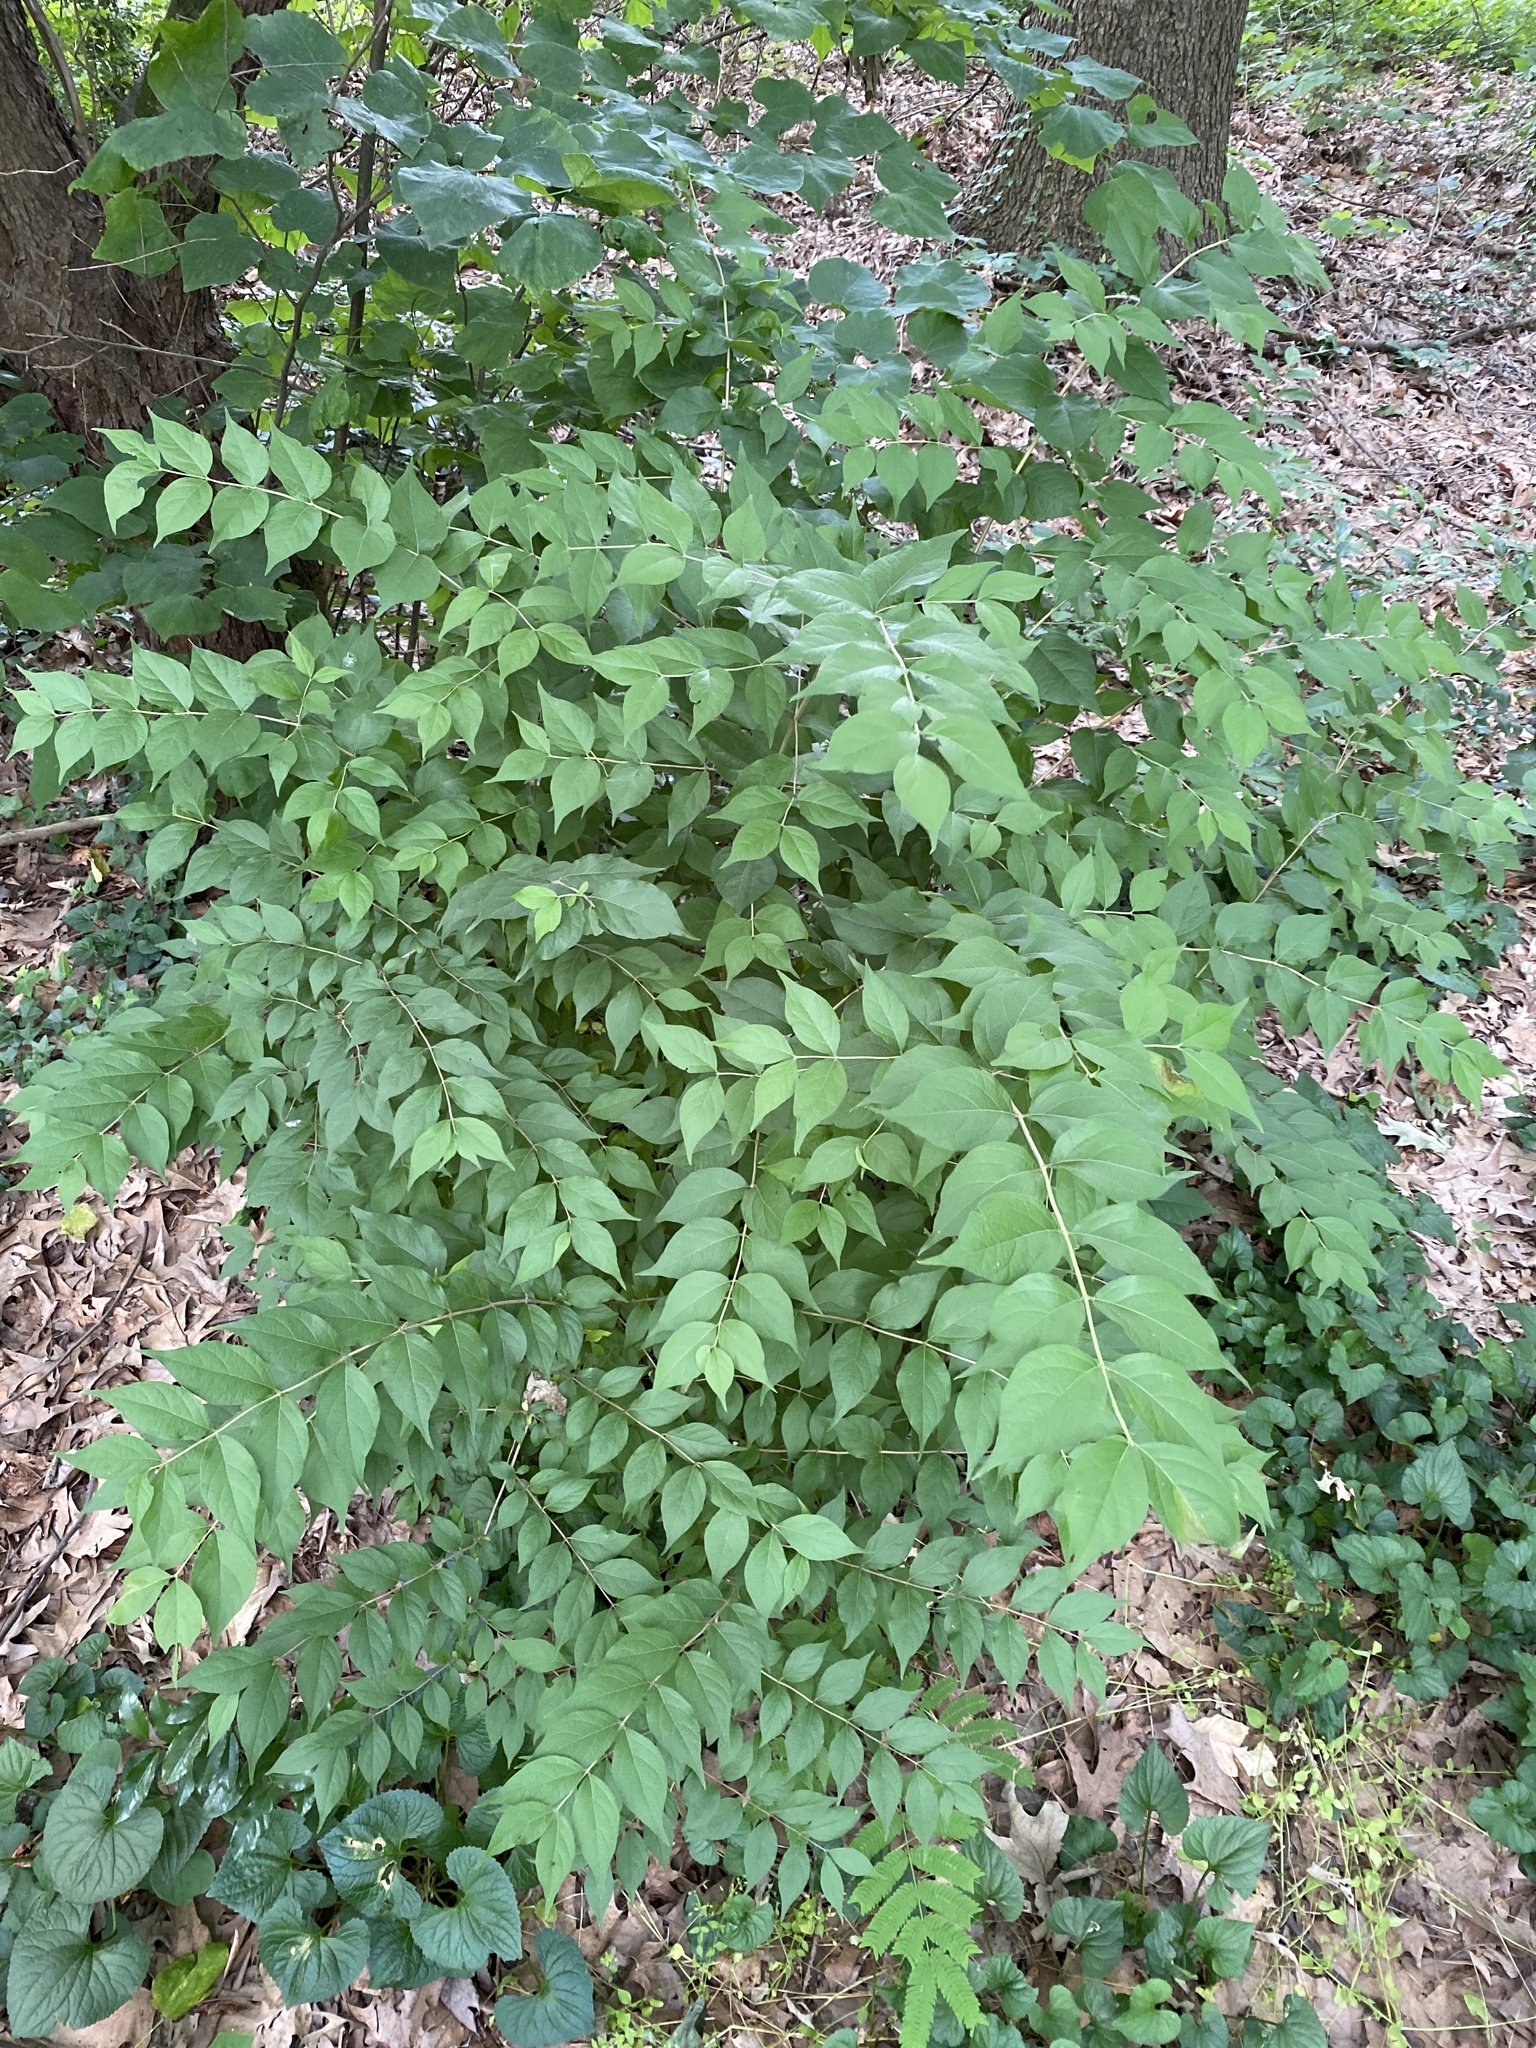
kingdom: Plantae
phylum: Tracheophyta
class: Magnoliopsida
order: Dipsacales
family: Caprifoliaceae
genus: Lonicera
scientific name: Lonicera maackii
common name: Amur honeysuckle
